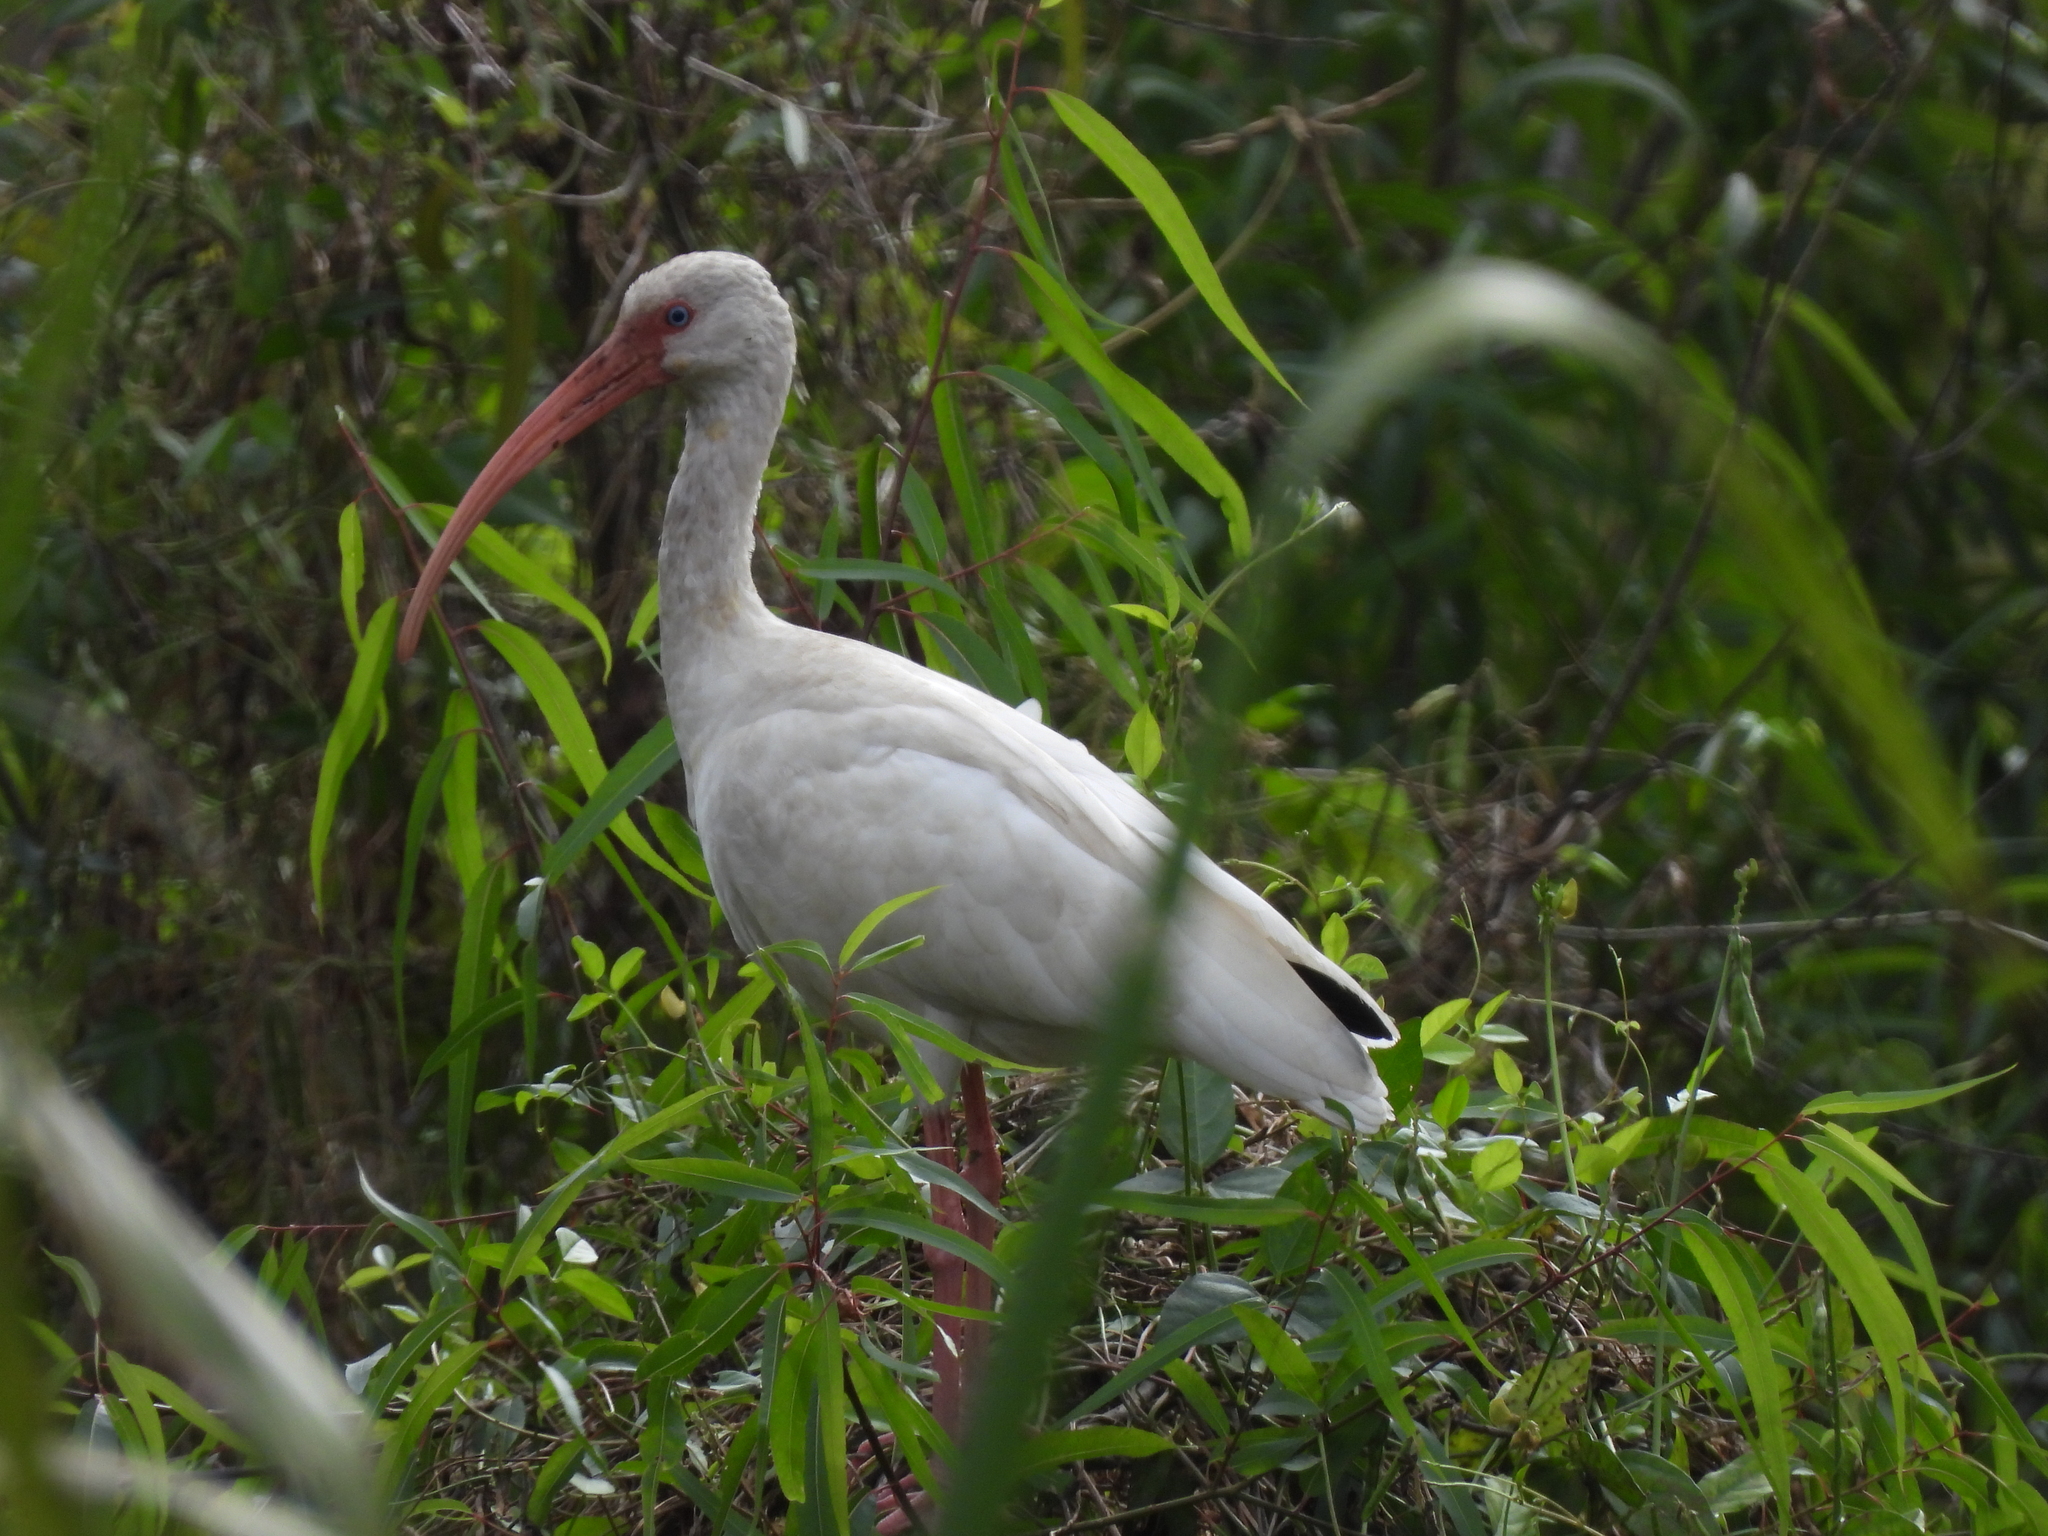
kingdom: Animalia
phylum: Chordata
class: Aves
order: Pelecaniformes
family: Threskiornithidae
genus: Eudocimus
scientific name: Eudocimus albus
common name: White ibis
